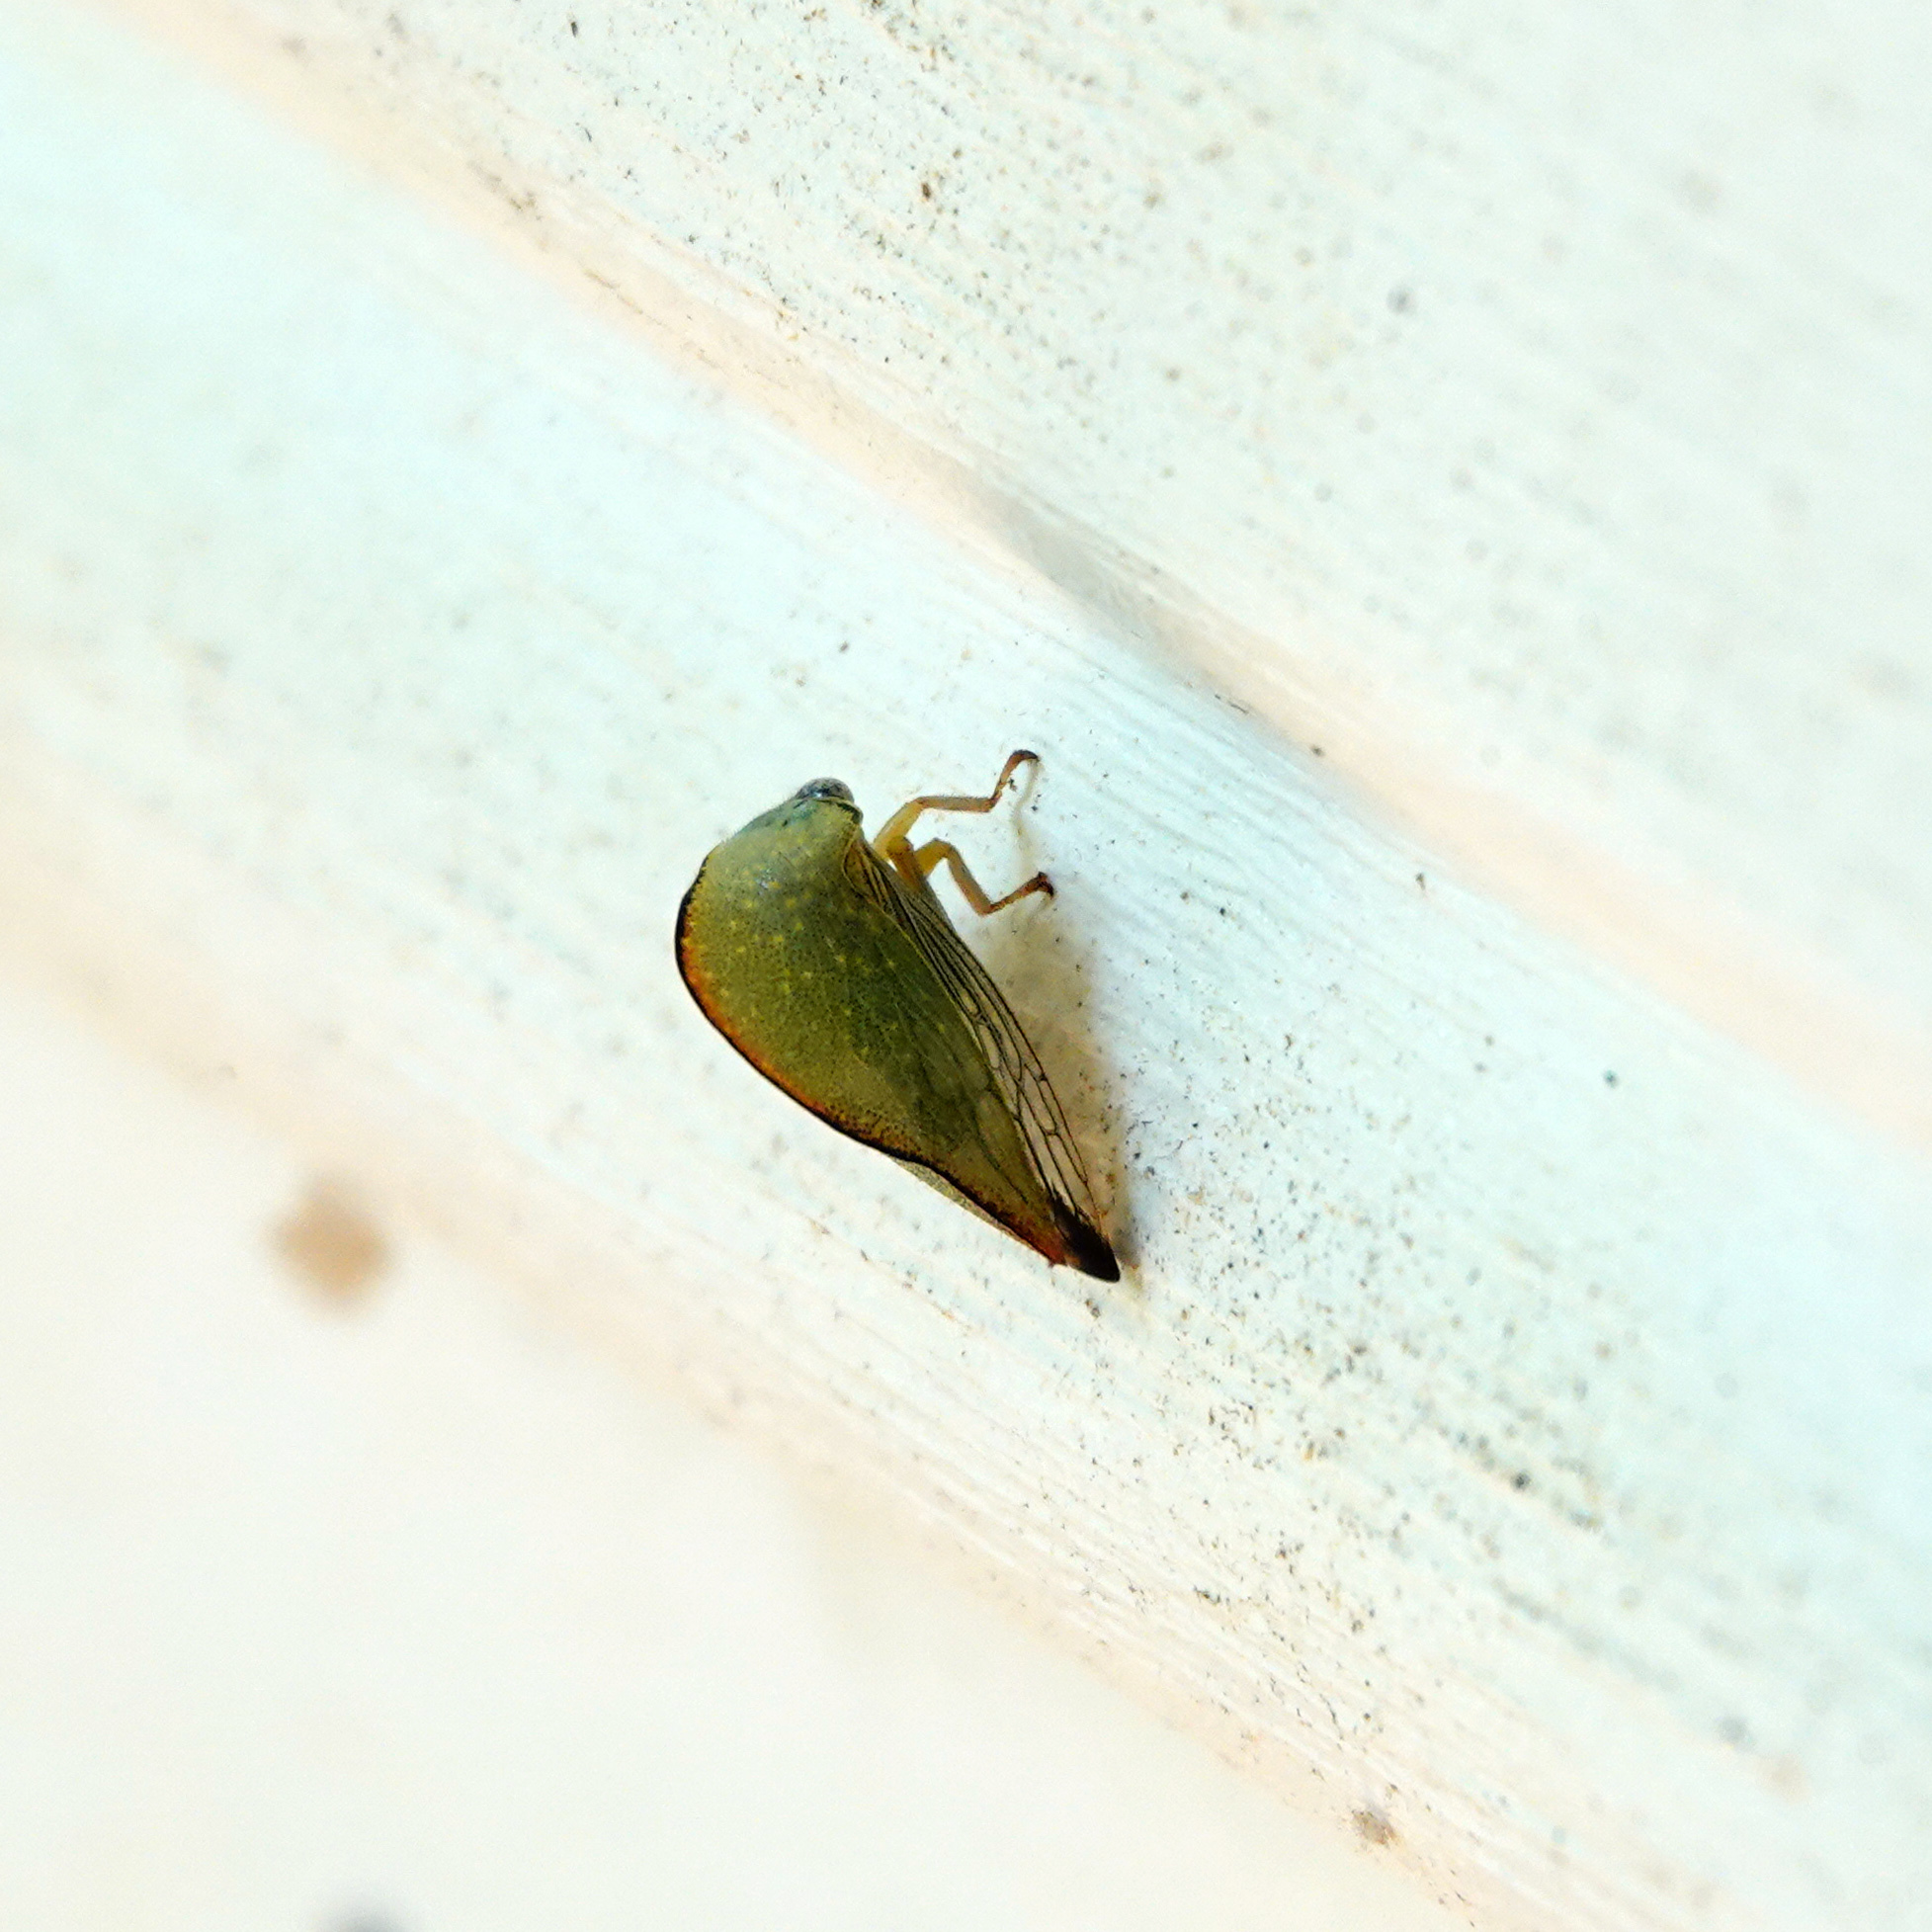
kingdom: Animalia
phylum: Arthropoda
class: Insecta
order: Hemiptera
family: Membracidae
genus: Archasia
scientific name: Archasia pallida
